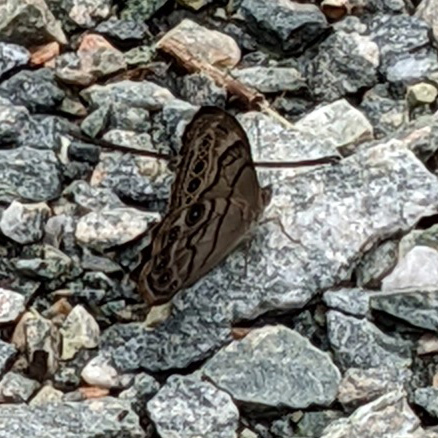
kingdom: Animalia
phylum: Arthropoda
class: Insecta
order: Lepidoptera
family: Nymphalidae
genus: Lethe
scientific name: Lethe anthedon
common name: Northern pearly-eye
